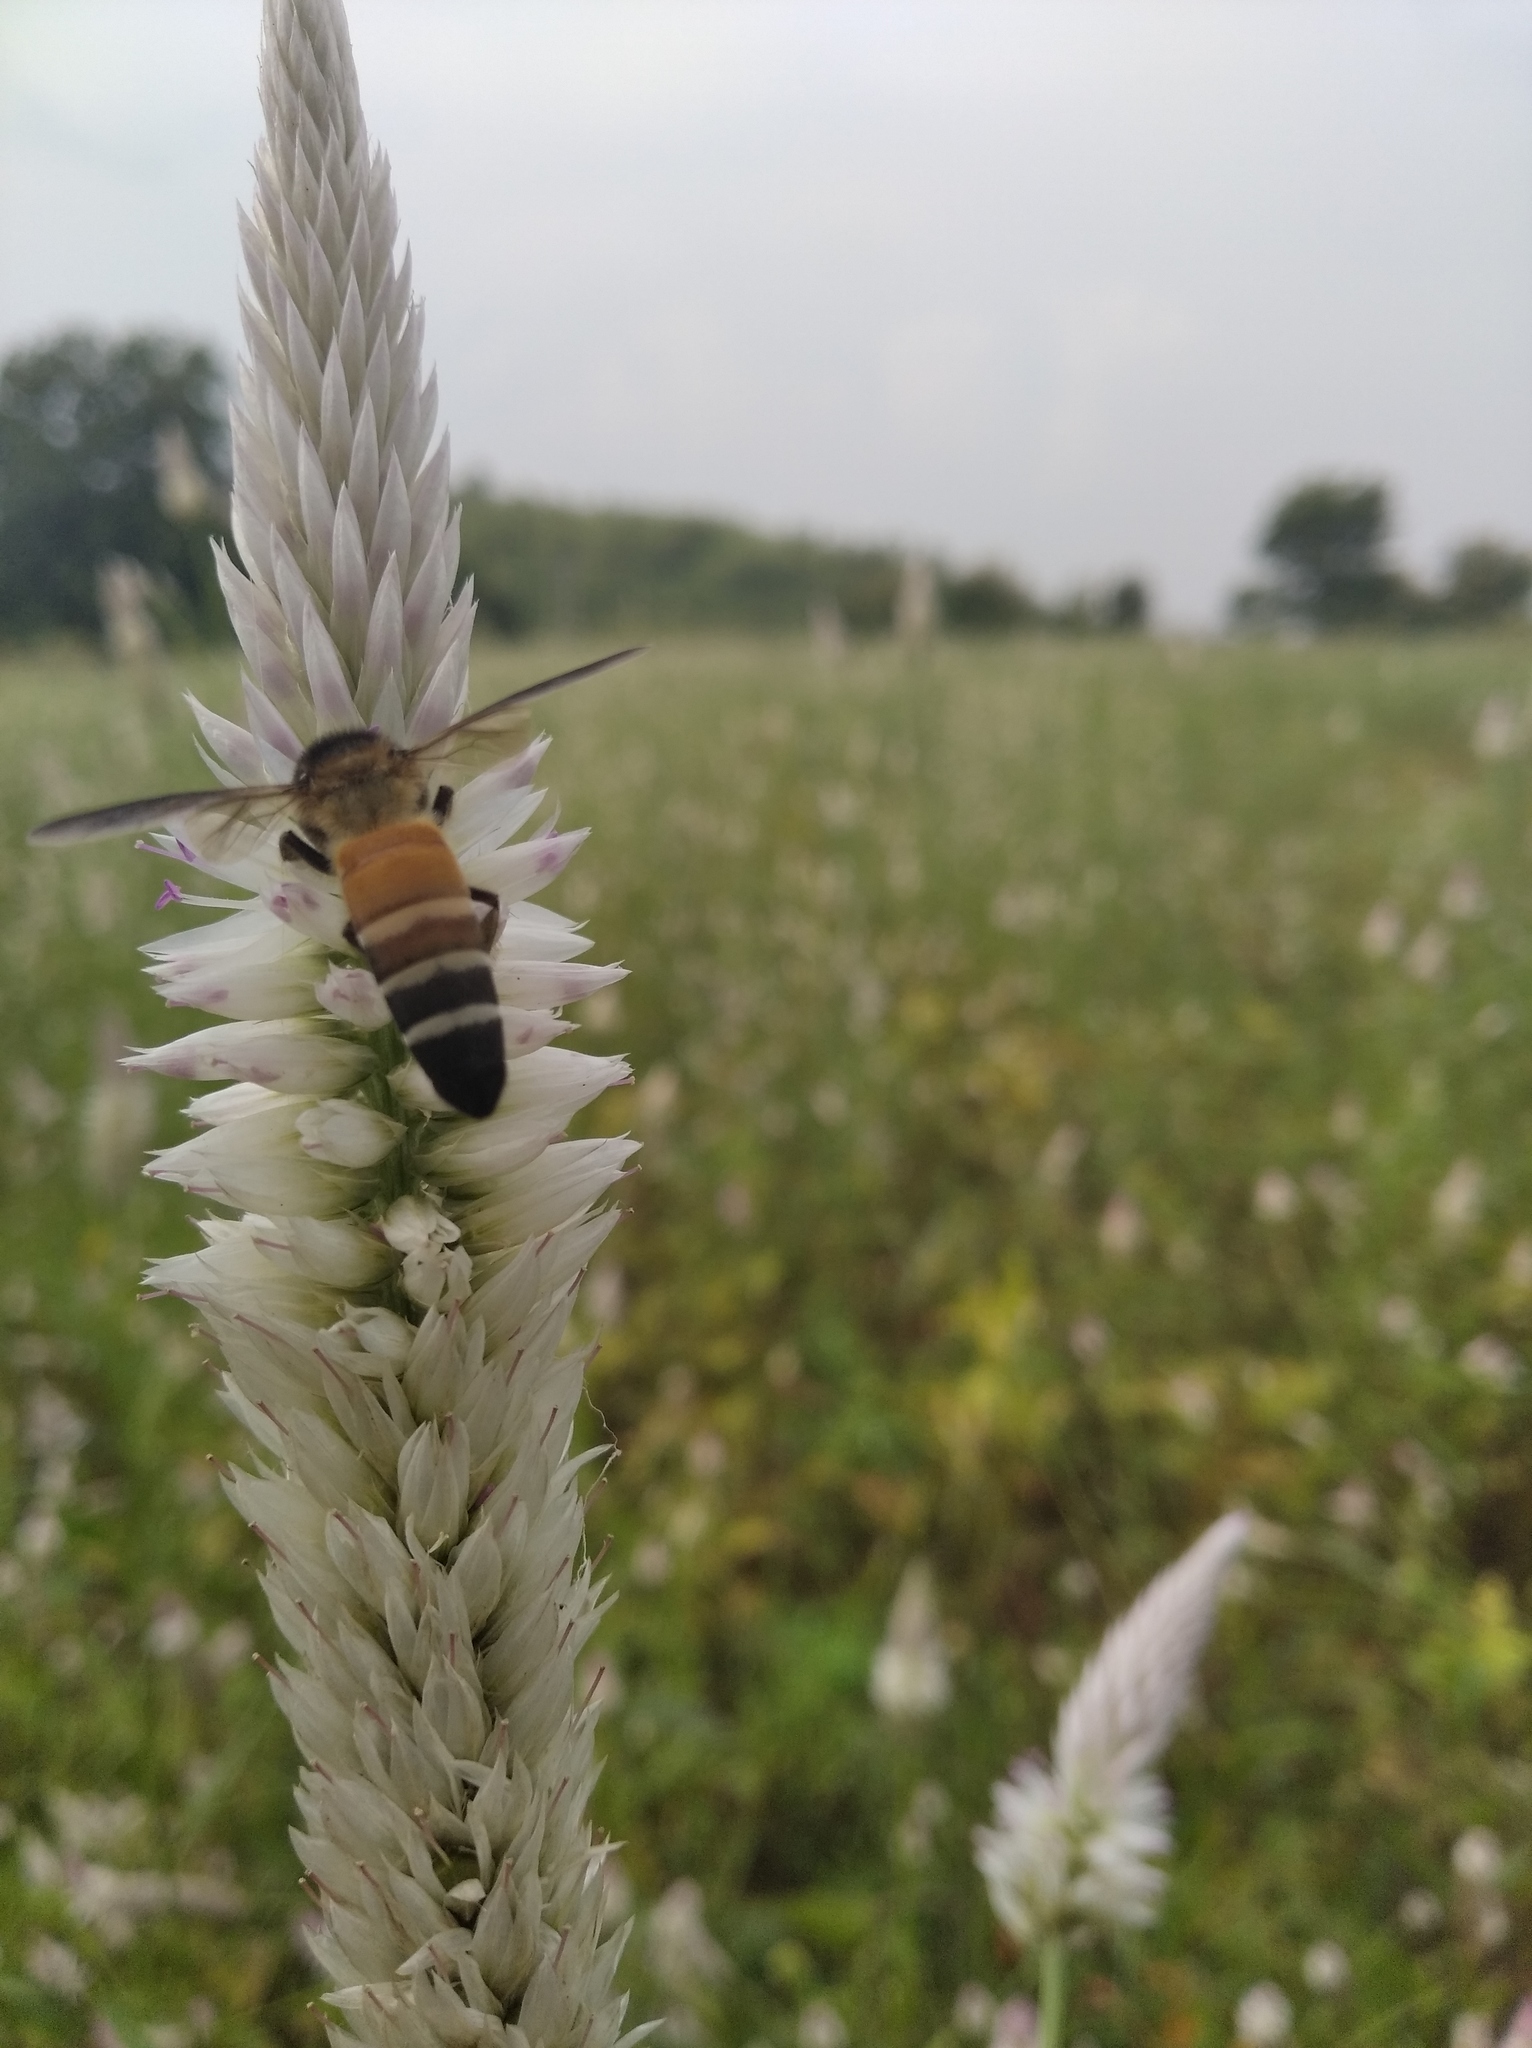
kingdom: Animalia
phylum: Arthropoda
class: Insecta
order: Hymenoptera
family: Apidae
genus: Apis
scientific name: Apis dorsata
